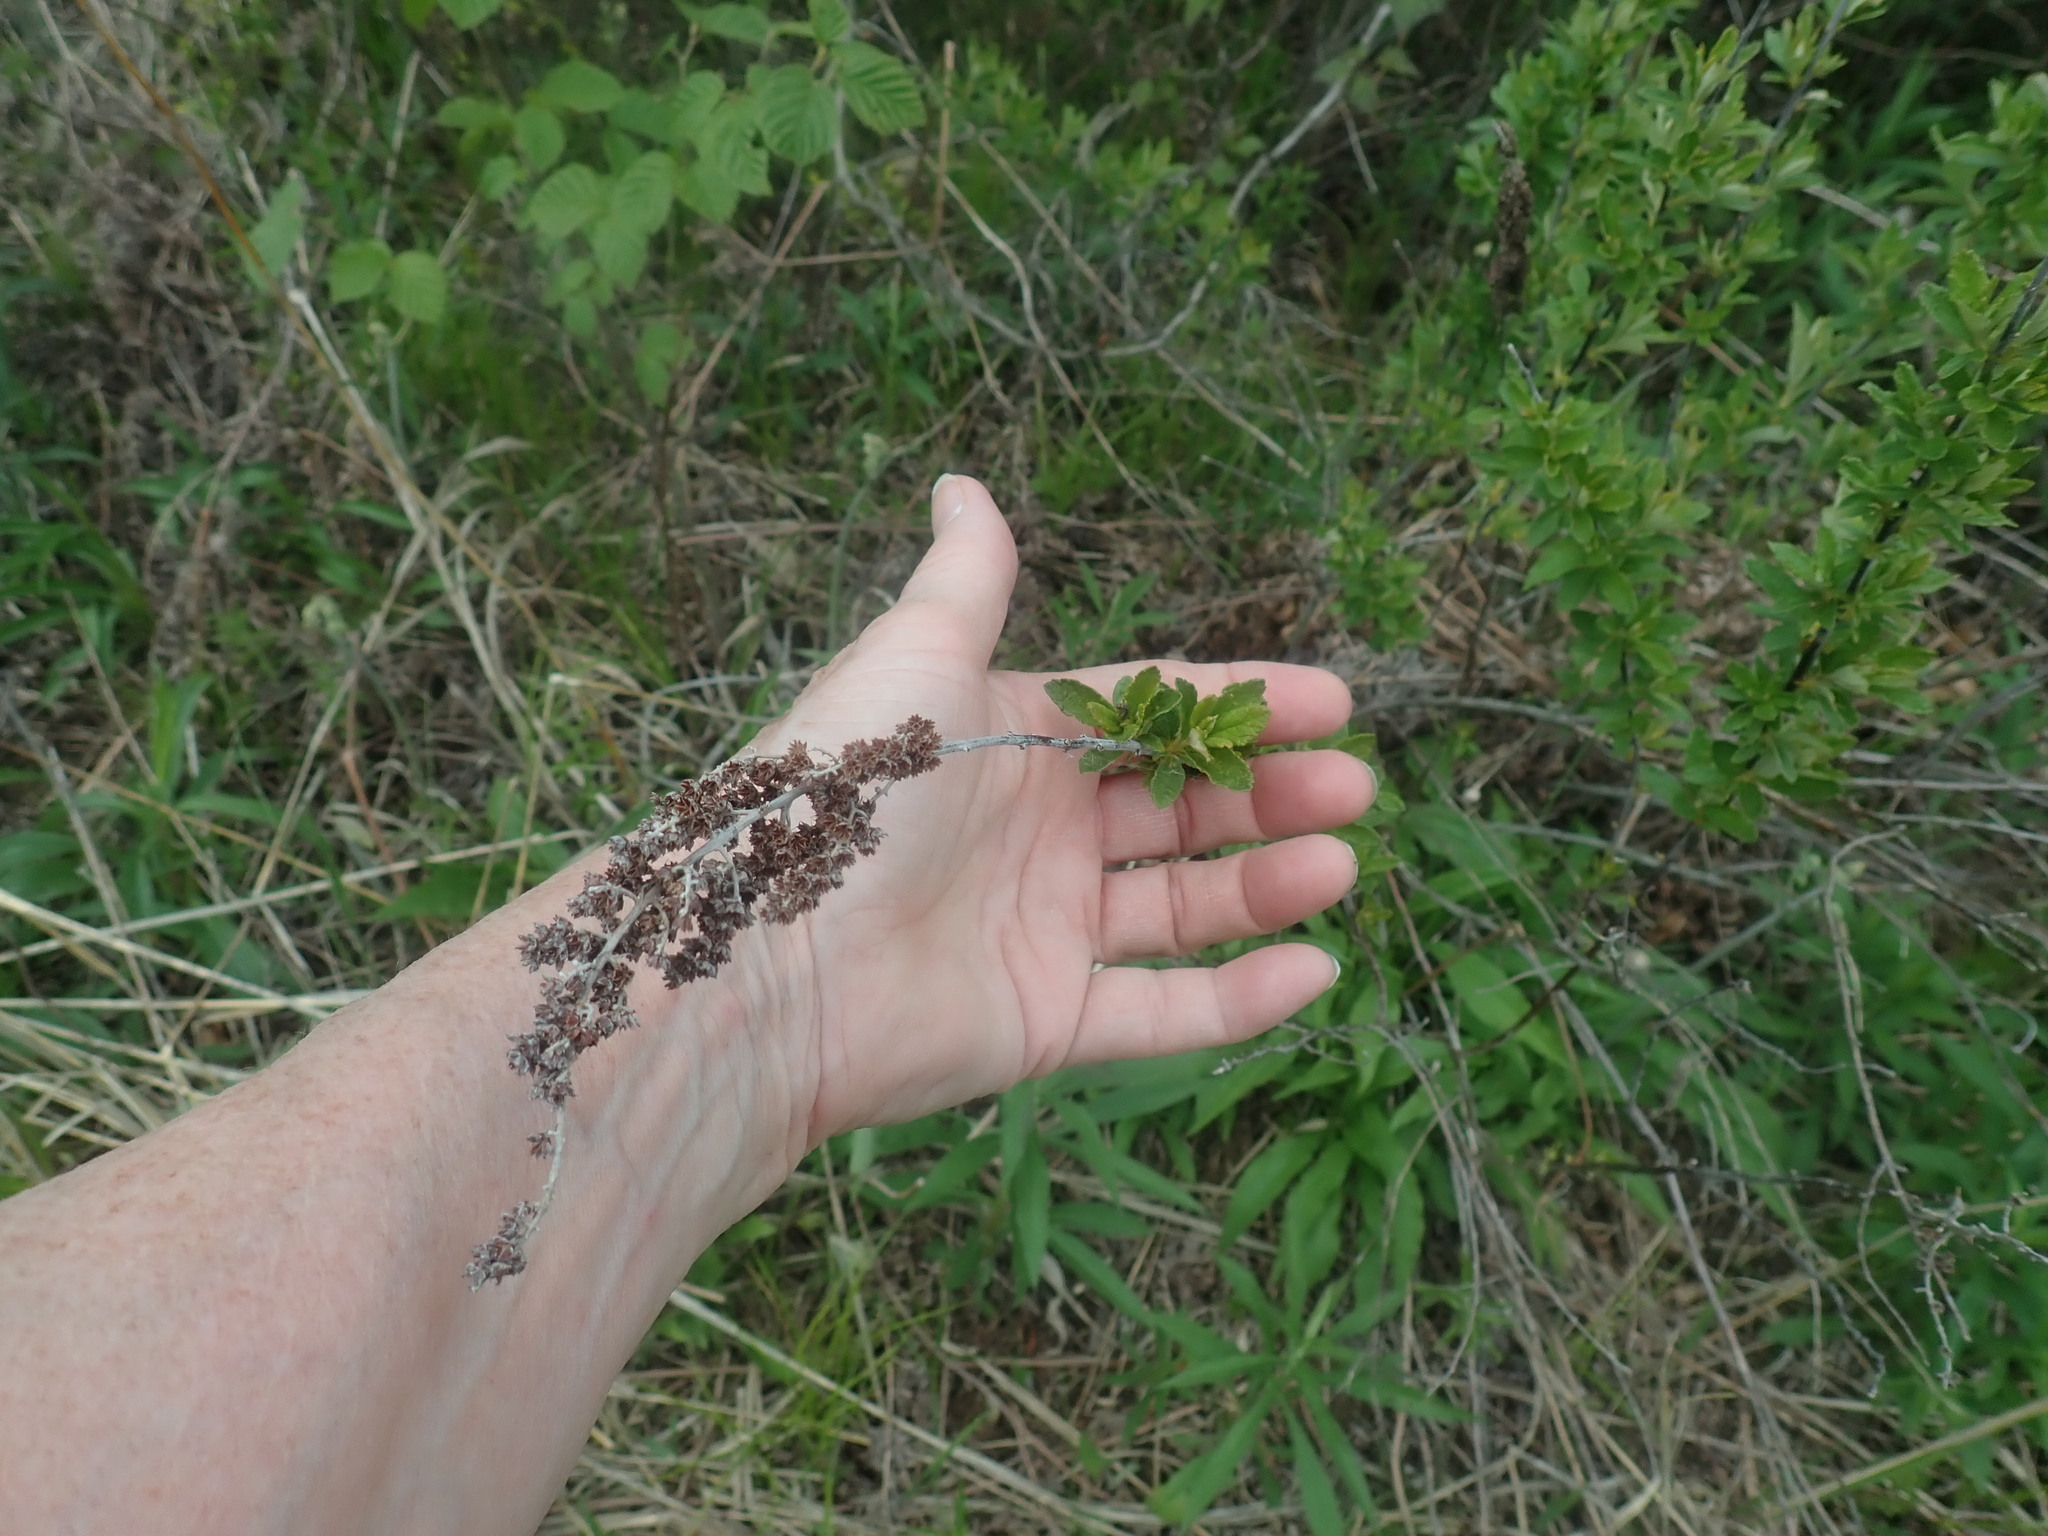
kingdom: Plantae
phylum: Tracheophyta
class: Magnoliopsida
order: Rosales
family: Rosaceae
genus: Spiraea
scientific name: Spiraea tomentosa
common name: Hardhack
